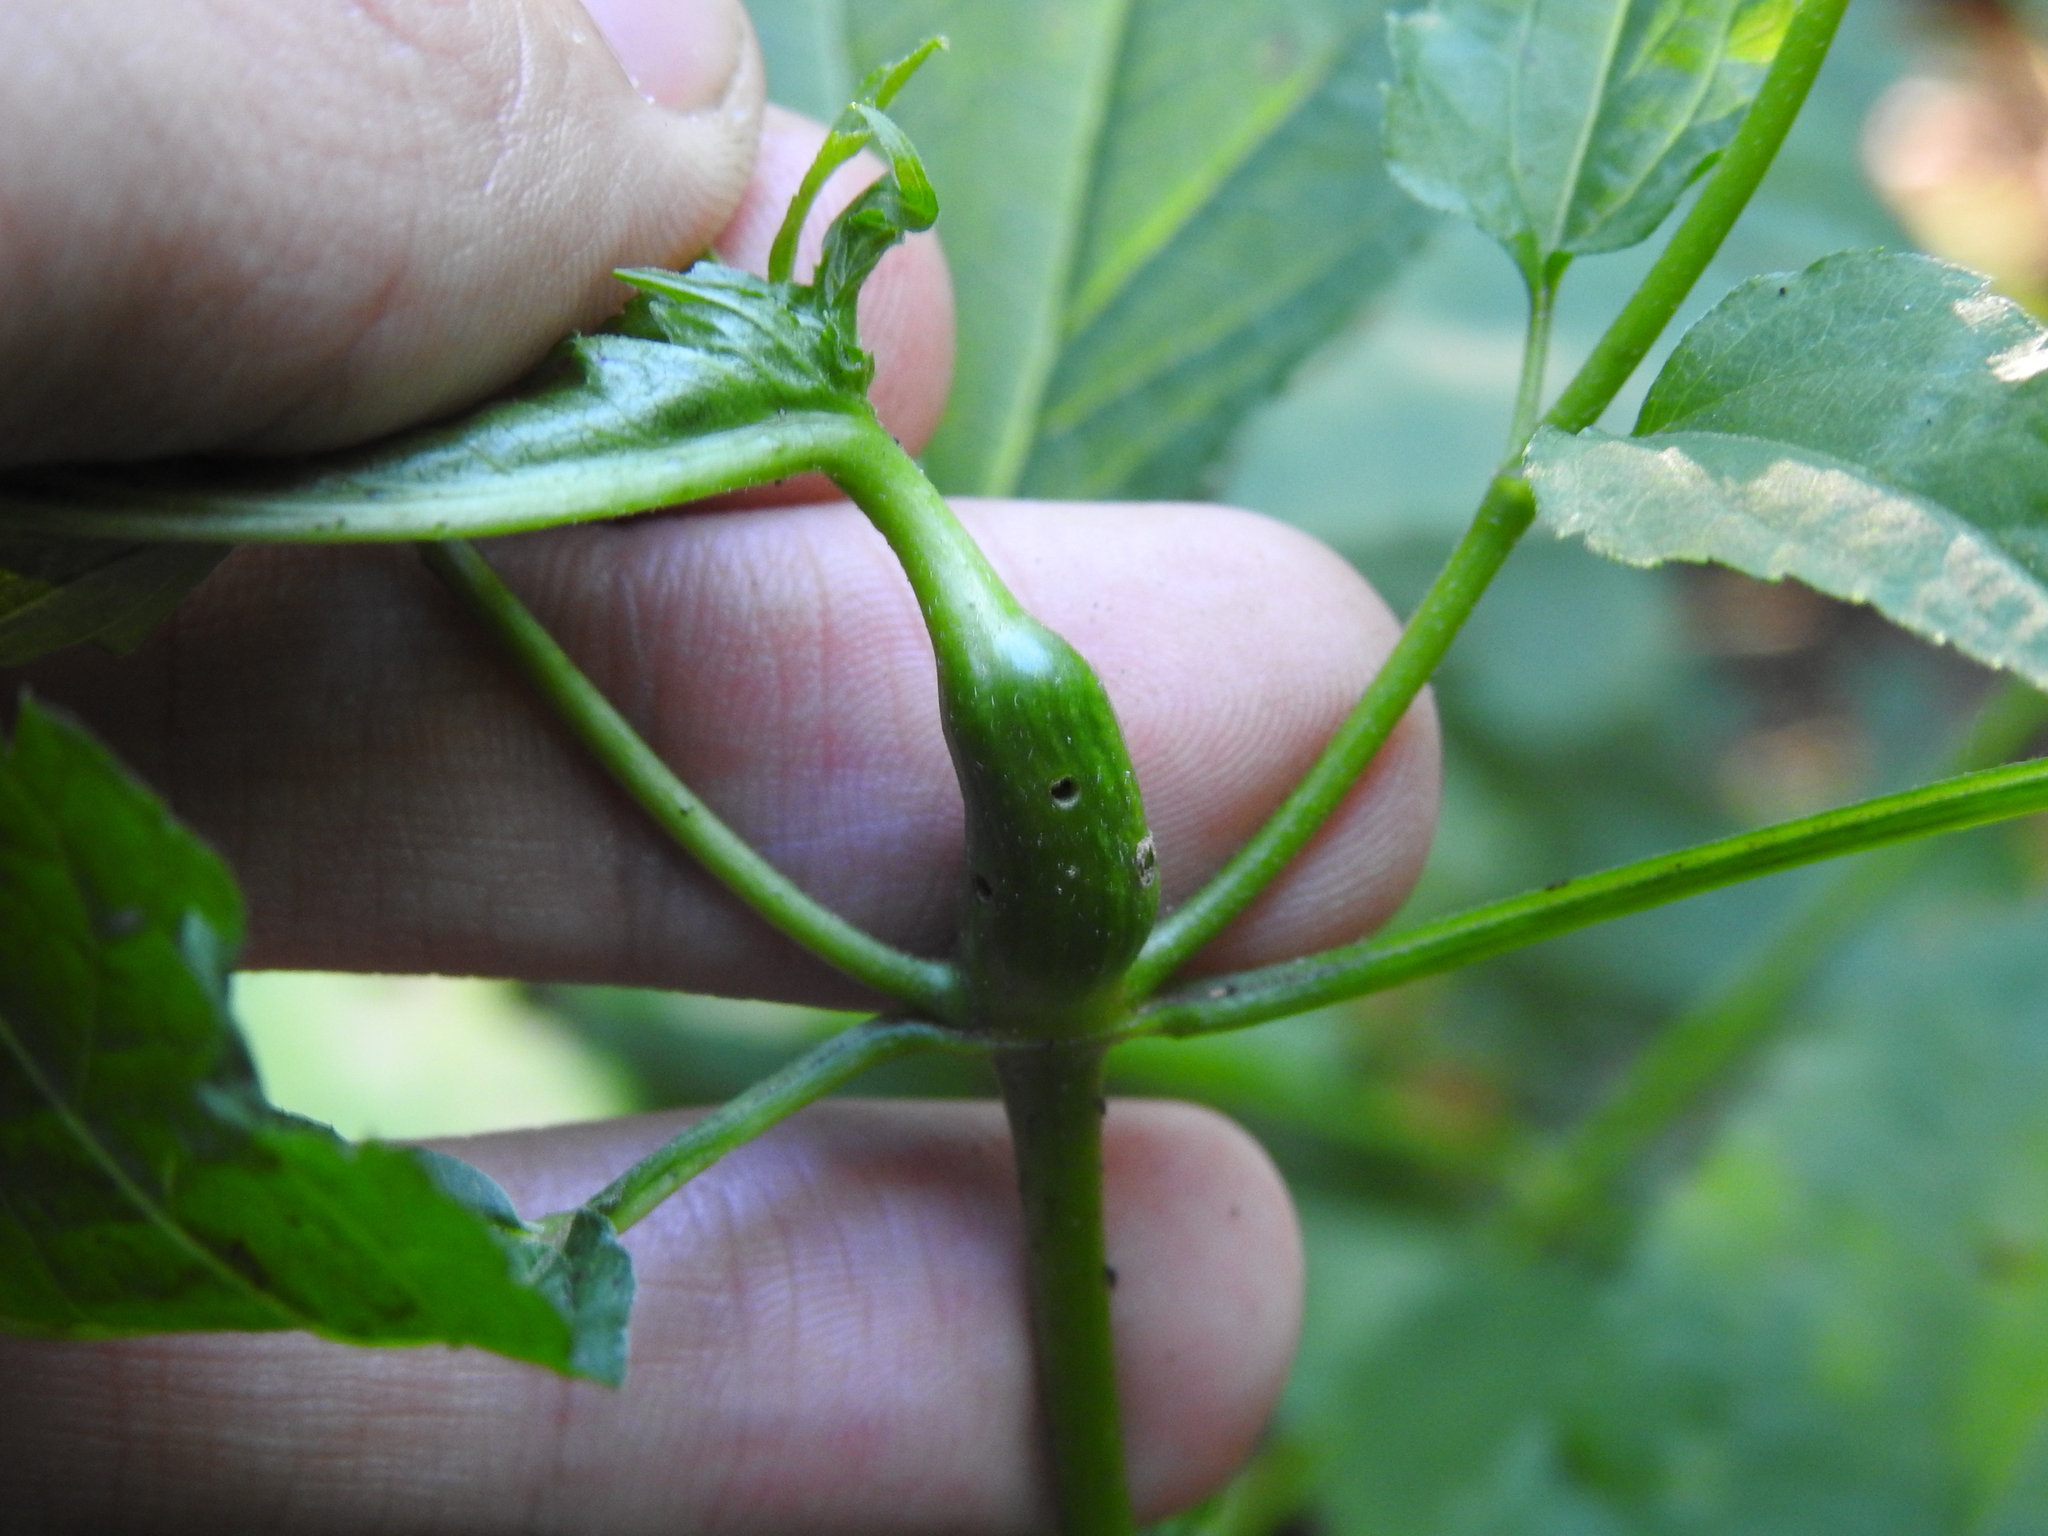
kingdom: Animalia
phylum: Arthropoda
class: Insecta
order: Diptera
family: Cecidomyiidae
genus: Asphondylia
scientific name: Asphondylia eupatorii
